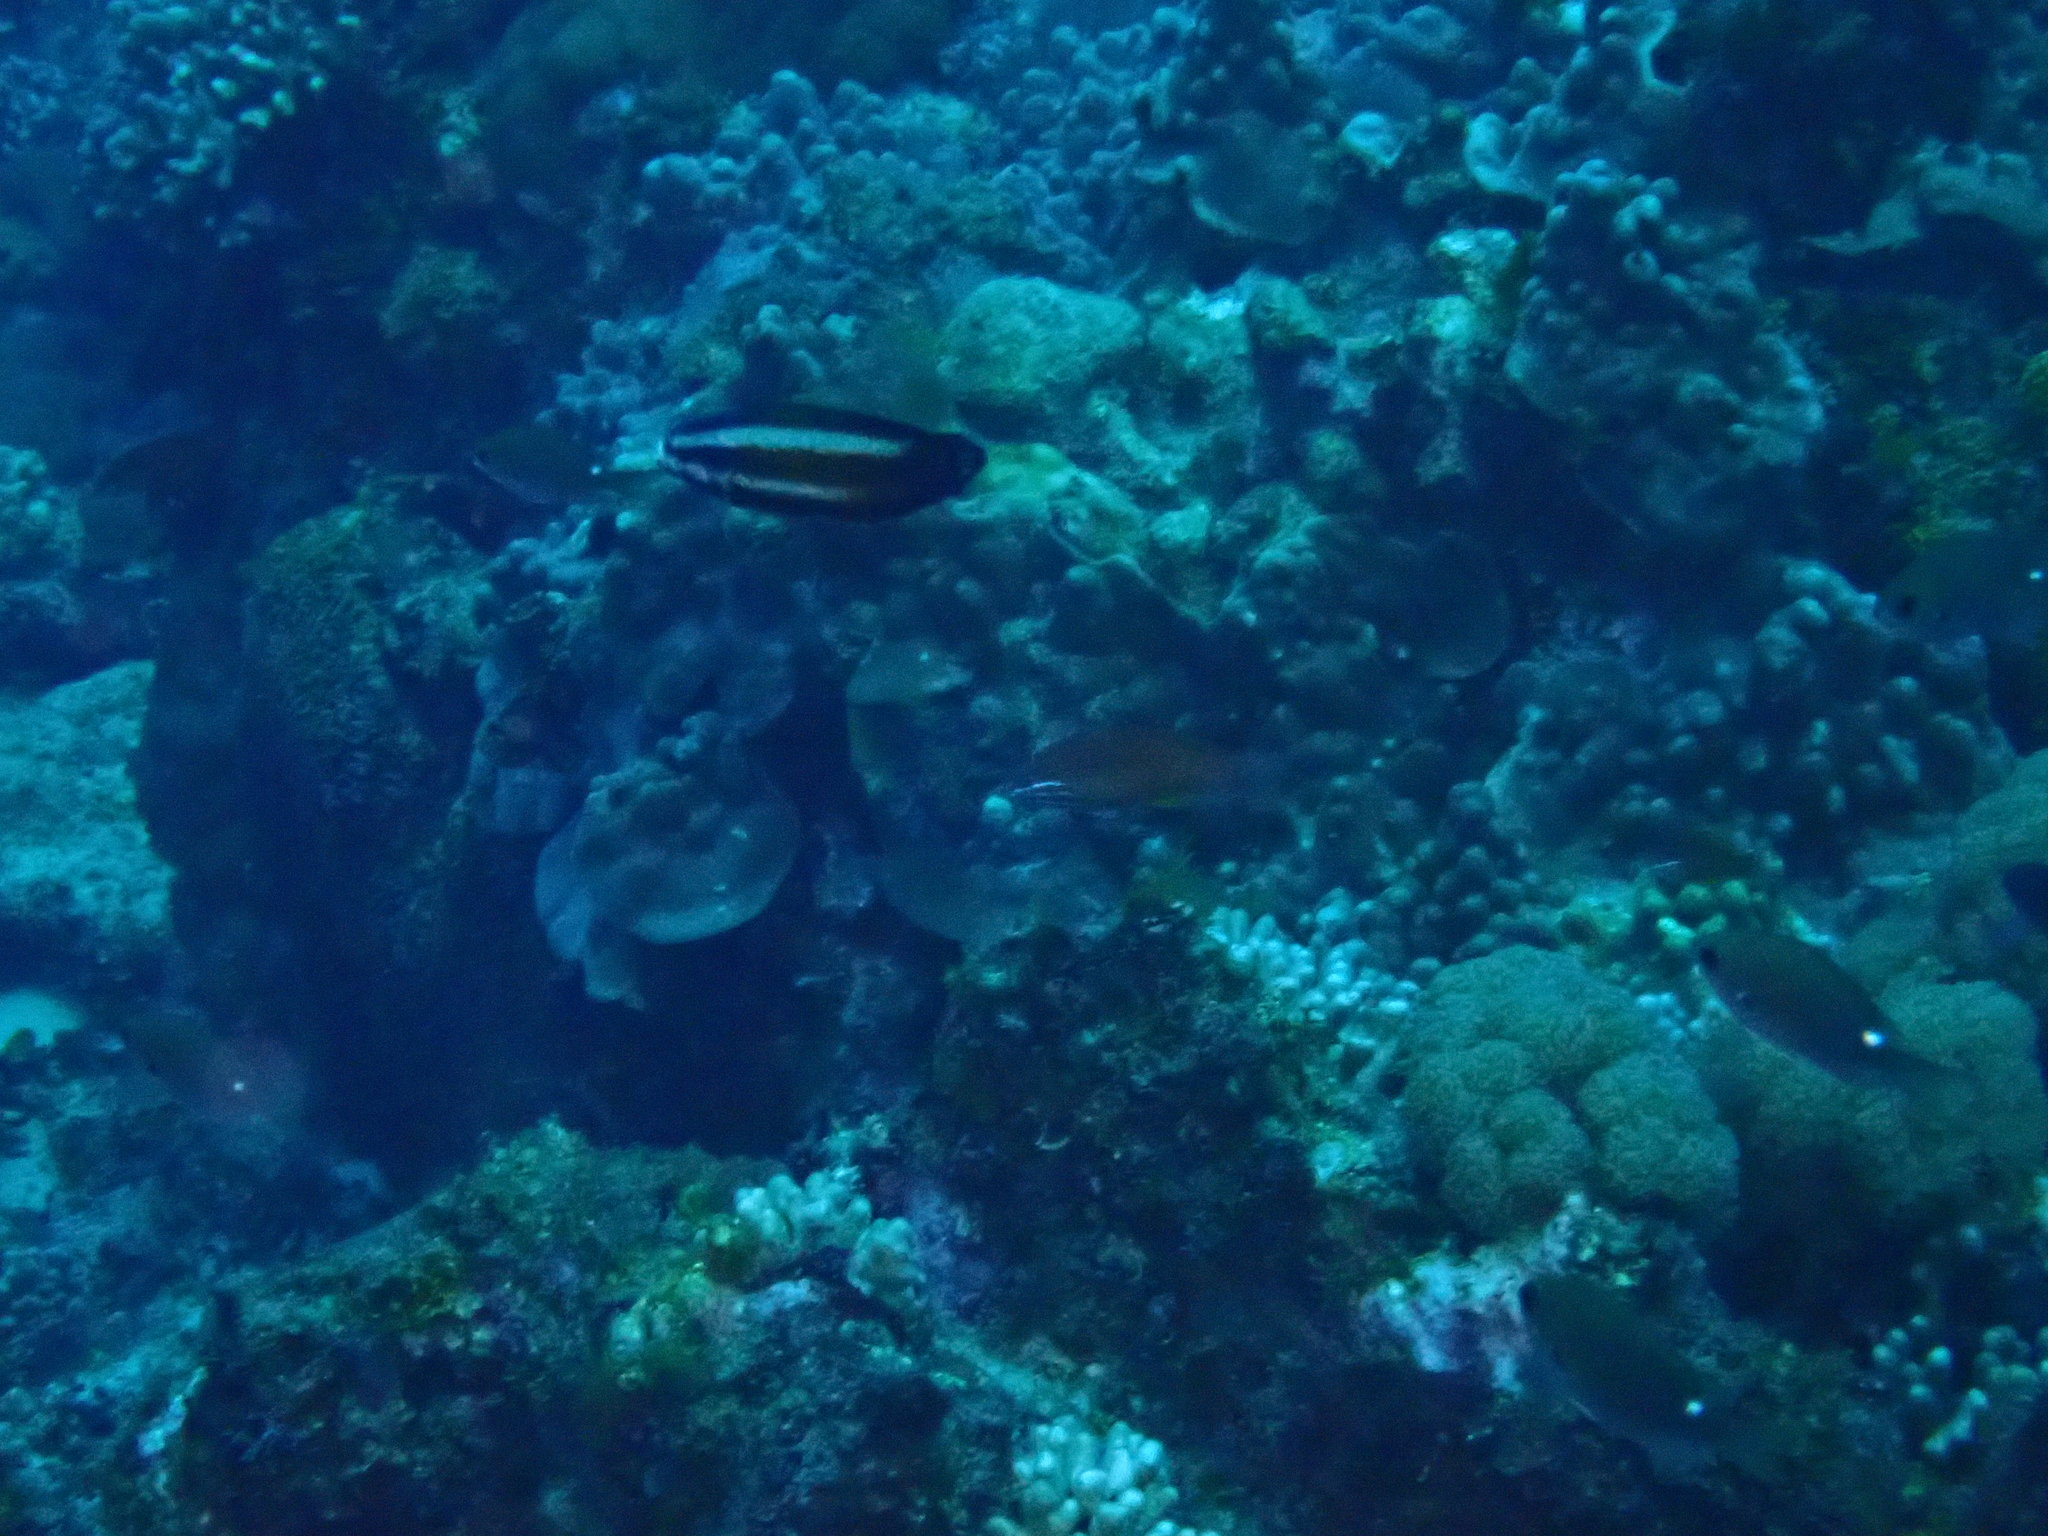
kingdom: Animalia
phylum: Chordata
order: Perciformes
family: Labridae
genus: Labropsis
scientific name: Labropsis australis
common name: Southern tubelip
